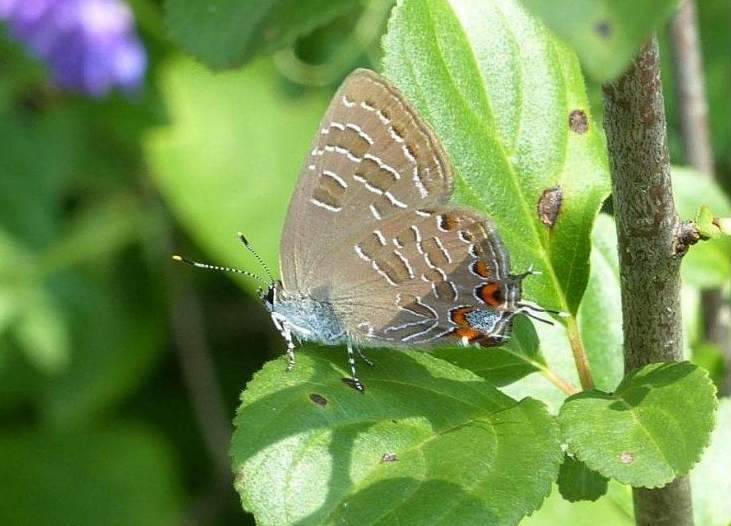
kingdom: Animalia
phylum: Arthropoda
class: Insecta
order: Lepidoptera
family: Lycaenidae
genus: Satyrium
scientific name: Satyrium liparops
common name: Striped hairstreak
